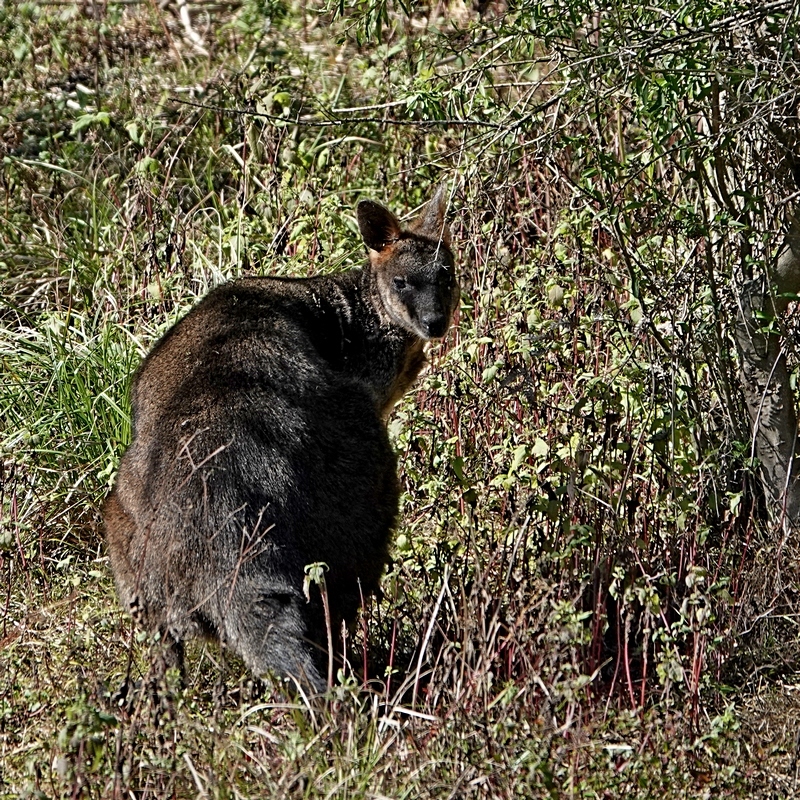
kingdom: Animalia
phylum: Chordata
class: Mammalia
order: Diprotodontia
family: Macropodidae
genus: Wallabia
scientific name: Wallabia bicolor
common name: Swamp wallaby
